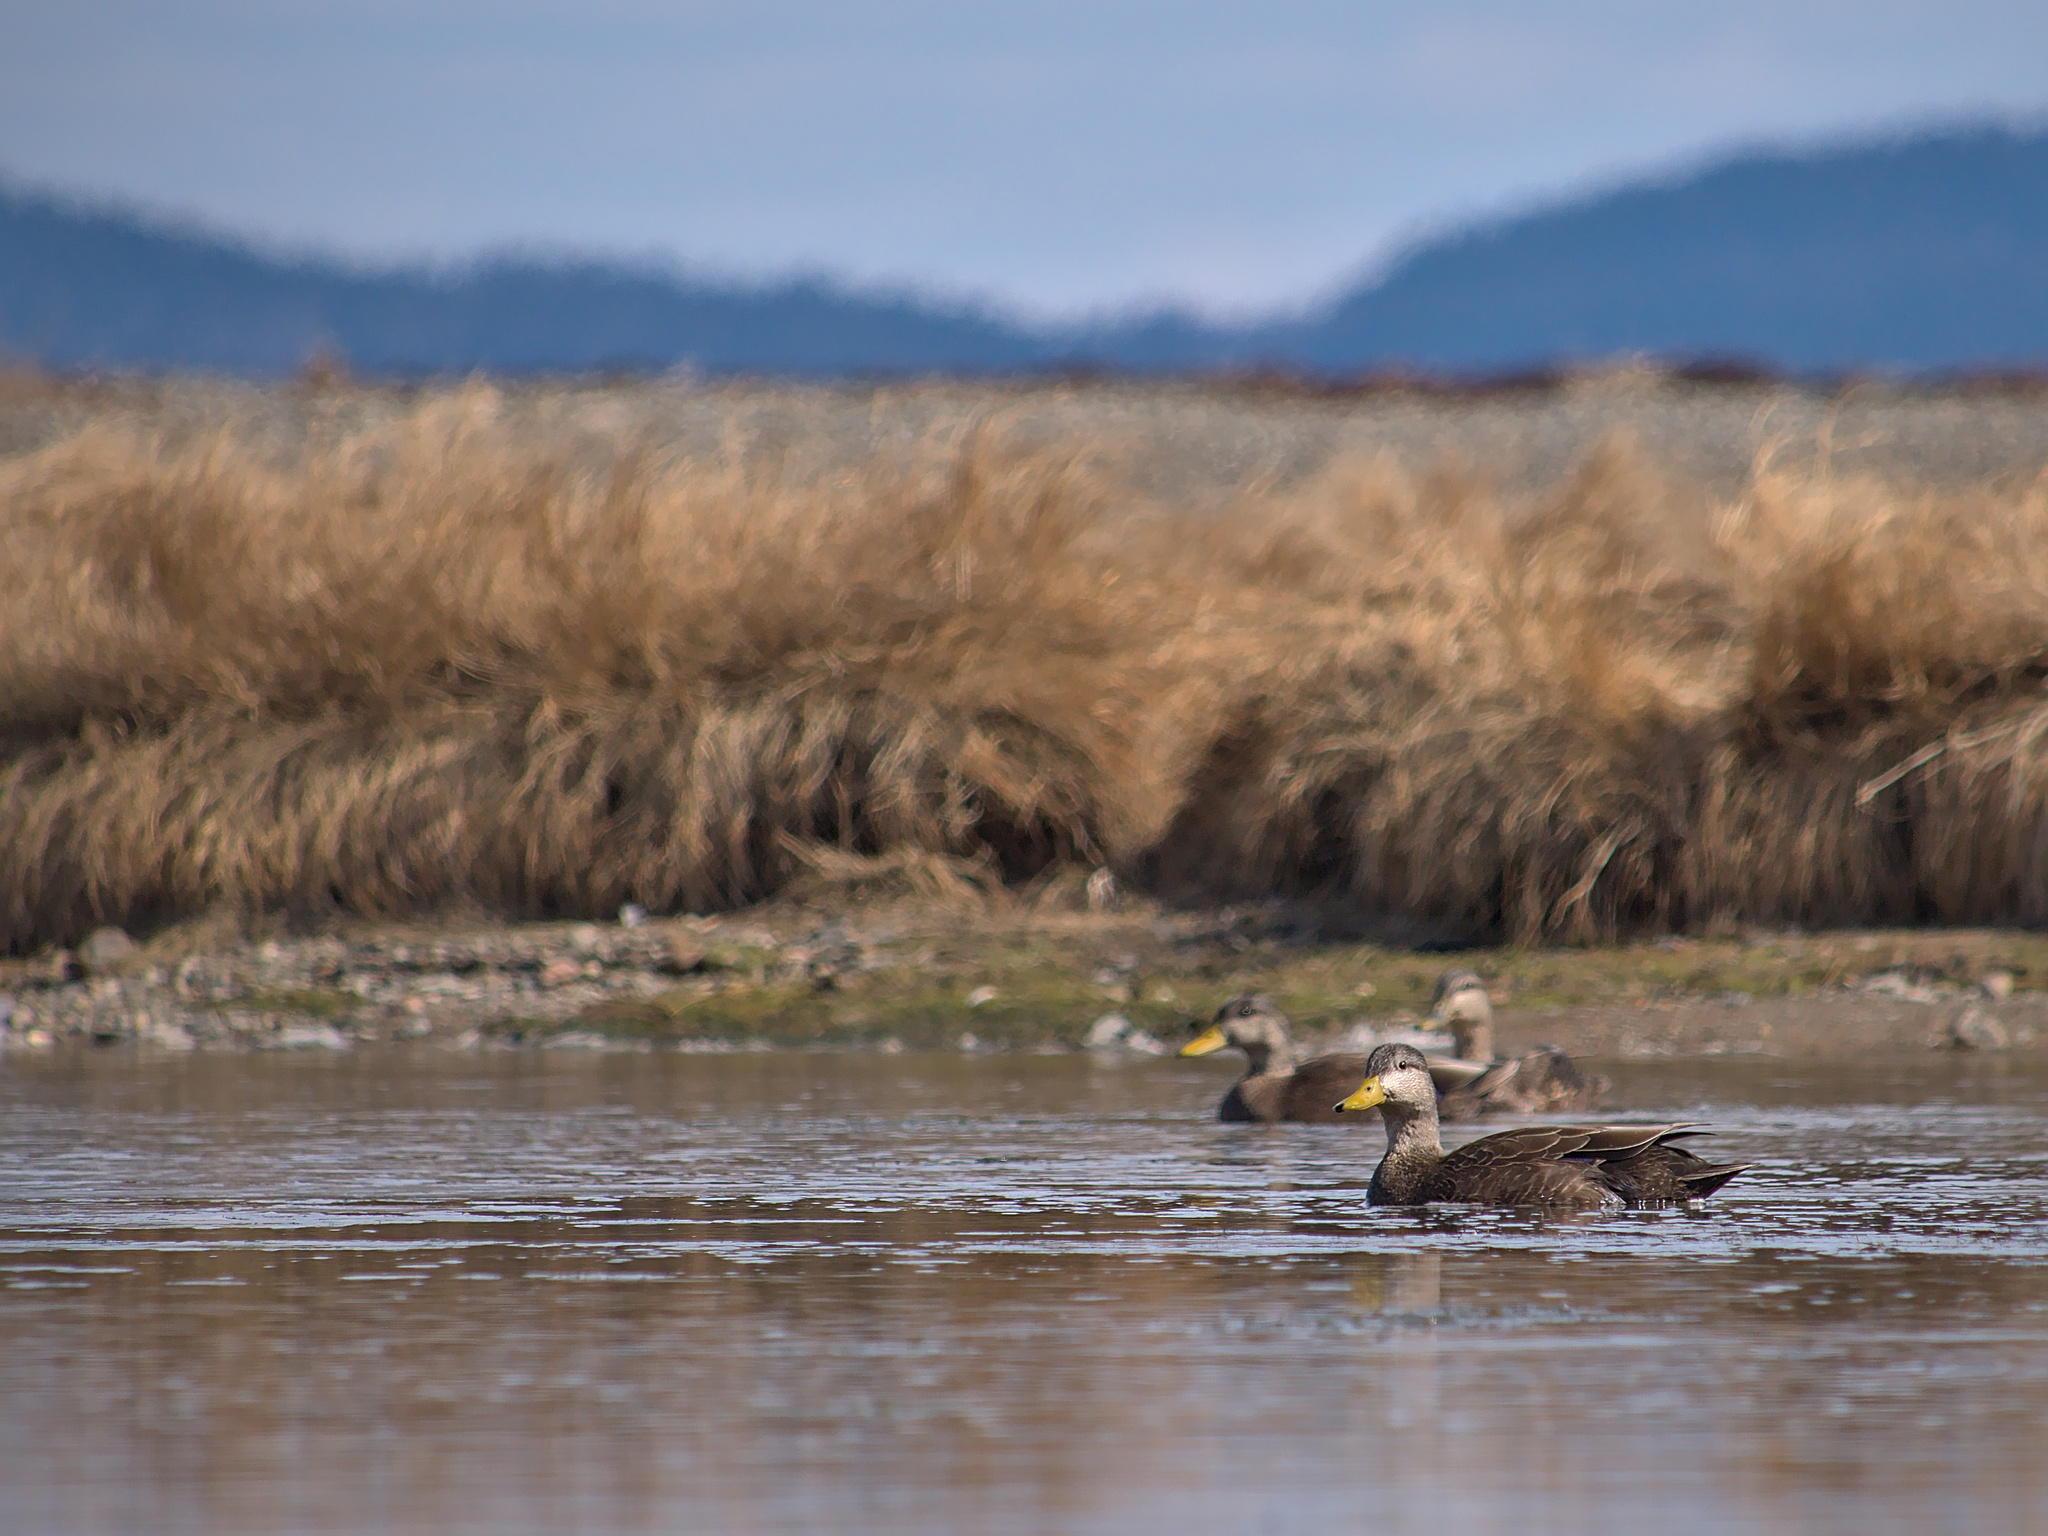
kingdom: Animalia
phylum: Chordata
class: Aves
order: Anseriformes
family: Anatidae
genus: Anas
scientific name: Anas rubripes
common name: American black duck
